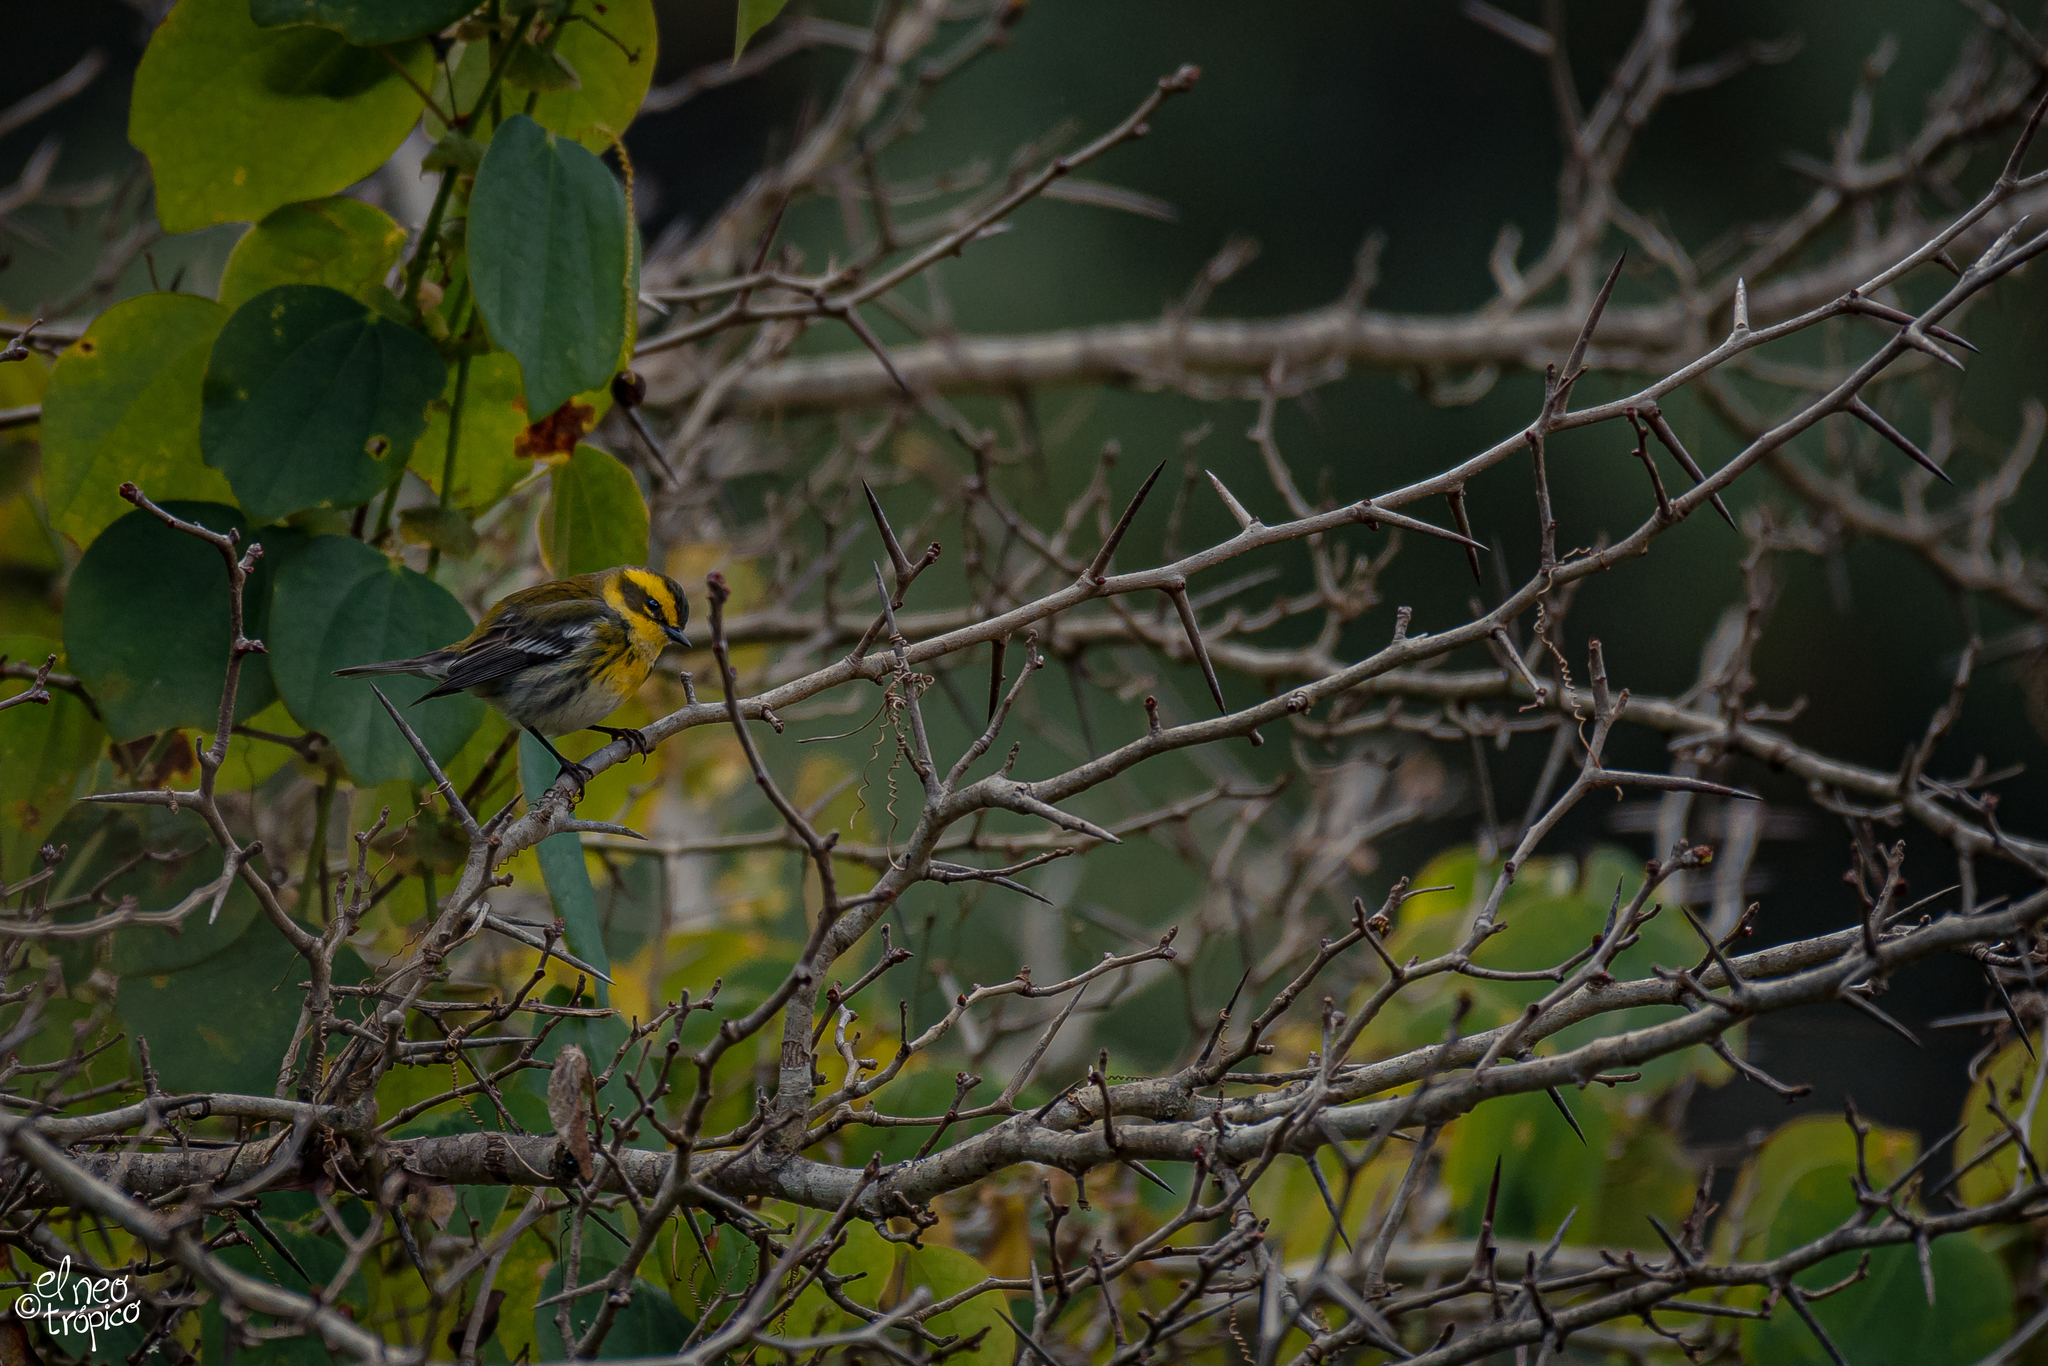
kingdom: Animalia
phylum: Chordata
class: Aves
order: Passeriformes
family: Parulidae
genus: Setophaga
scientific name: Setophaga townsendi
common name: Townsend's warbler
